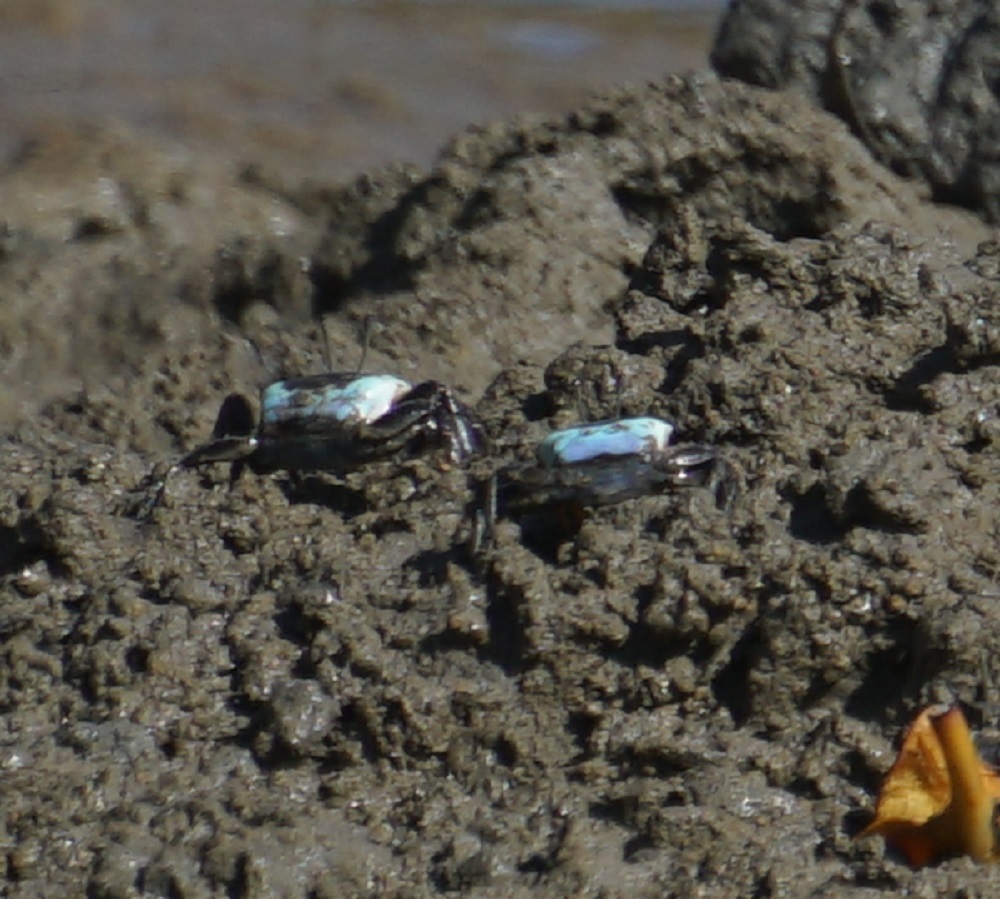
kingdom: Animalia
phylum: Arthropoda
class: Malacostraca
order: Decapoda
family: Ocypodidae
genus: Gelasimus
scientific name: Gelasimus vomeris
